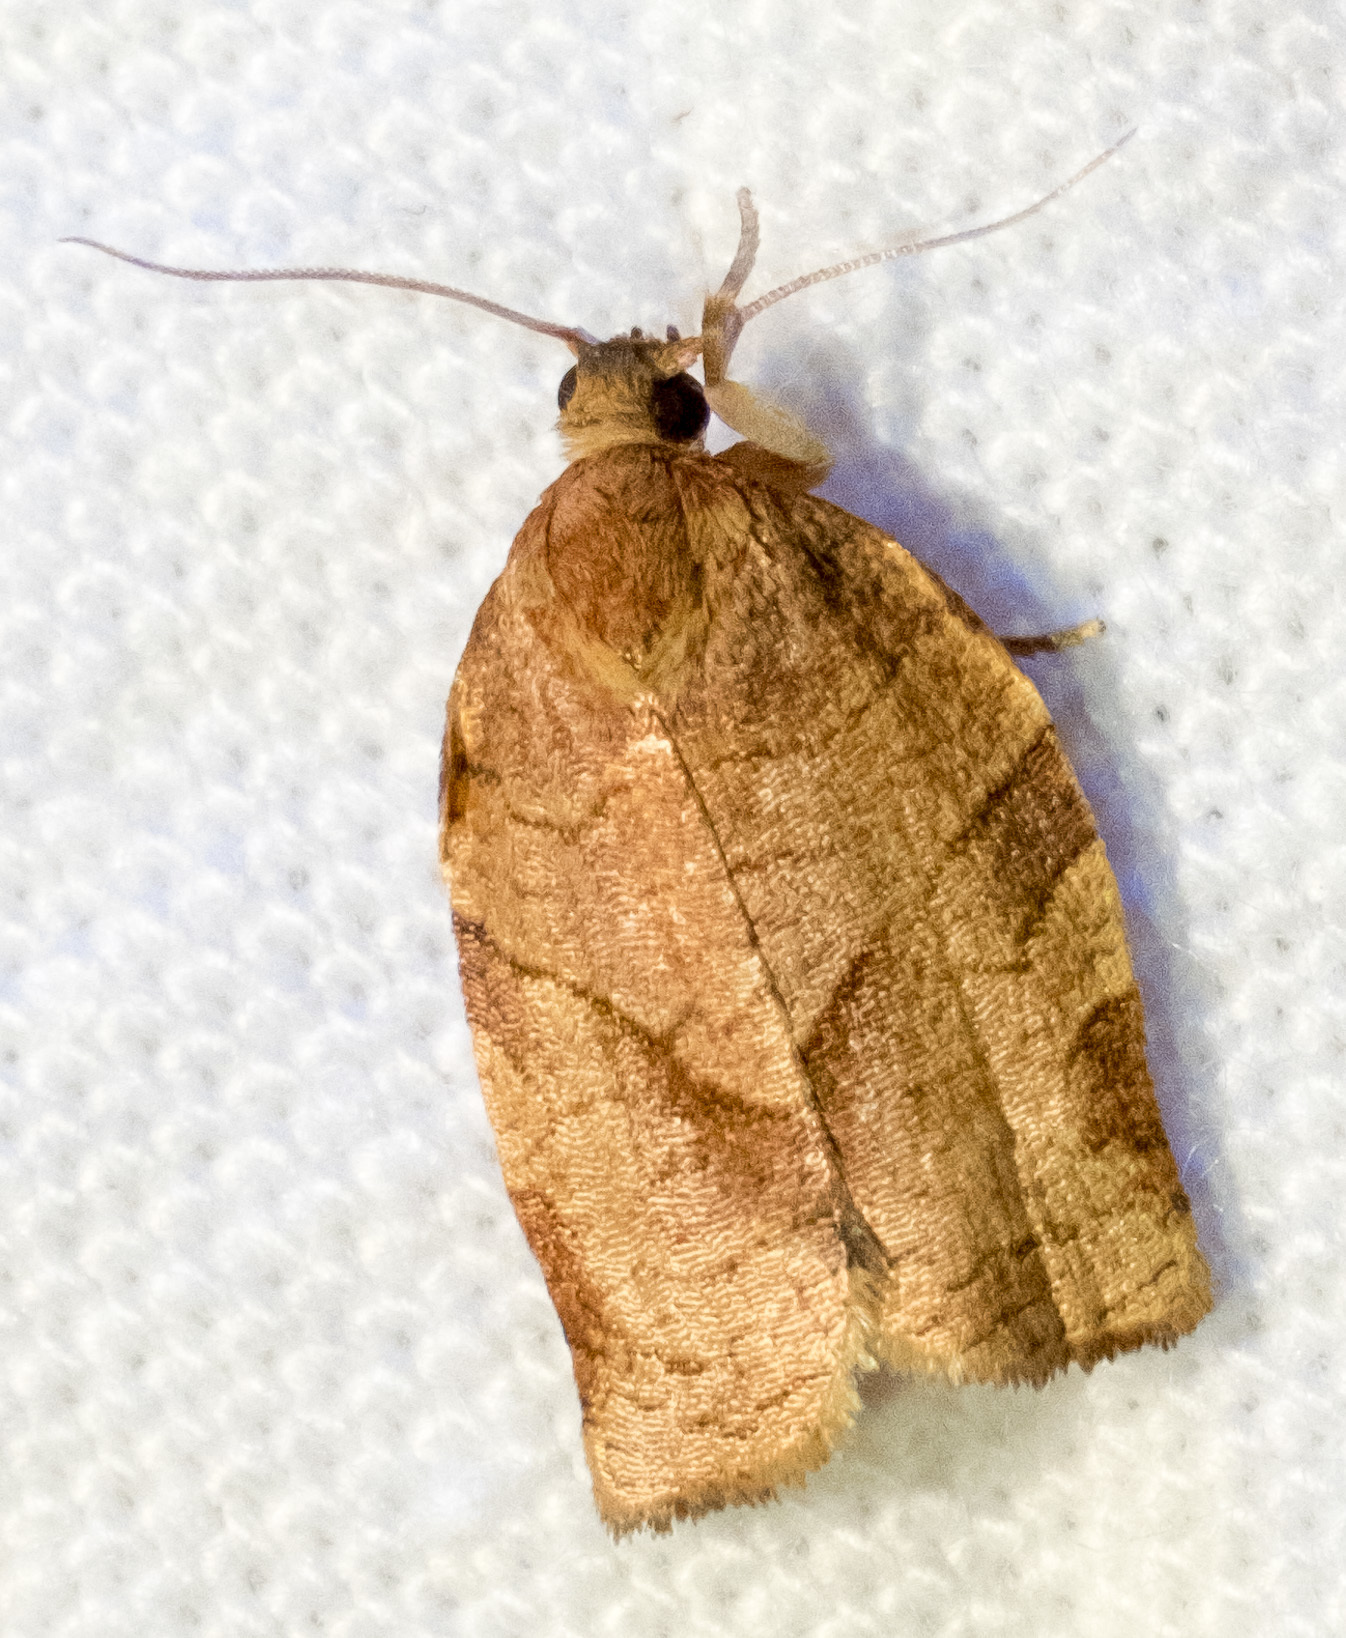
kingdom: Animalia
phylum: Arthropoda
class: Insecta
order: Lepidoptera
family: Tortricidae
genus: Choristoneura
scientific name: Choristoneura rosaceana
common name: Oblique-banded leafroller moth
